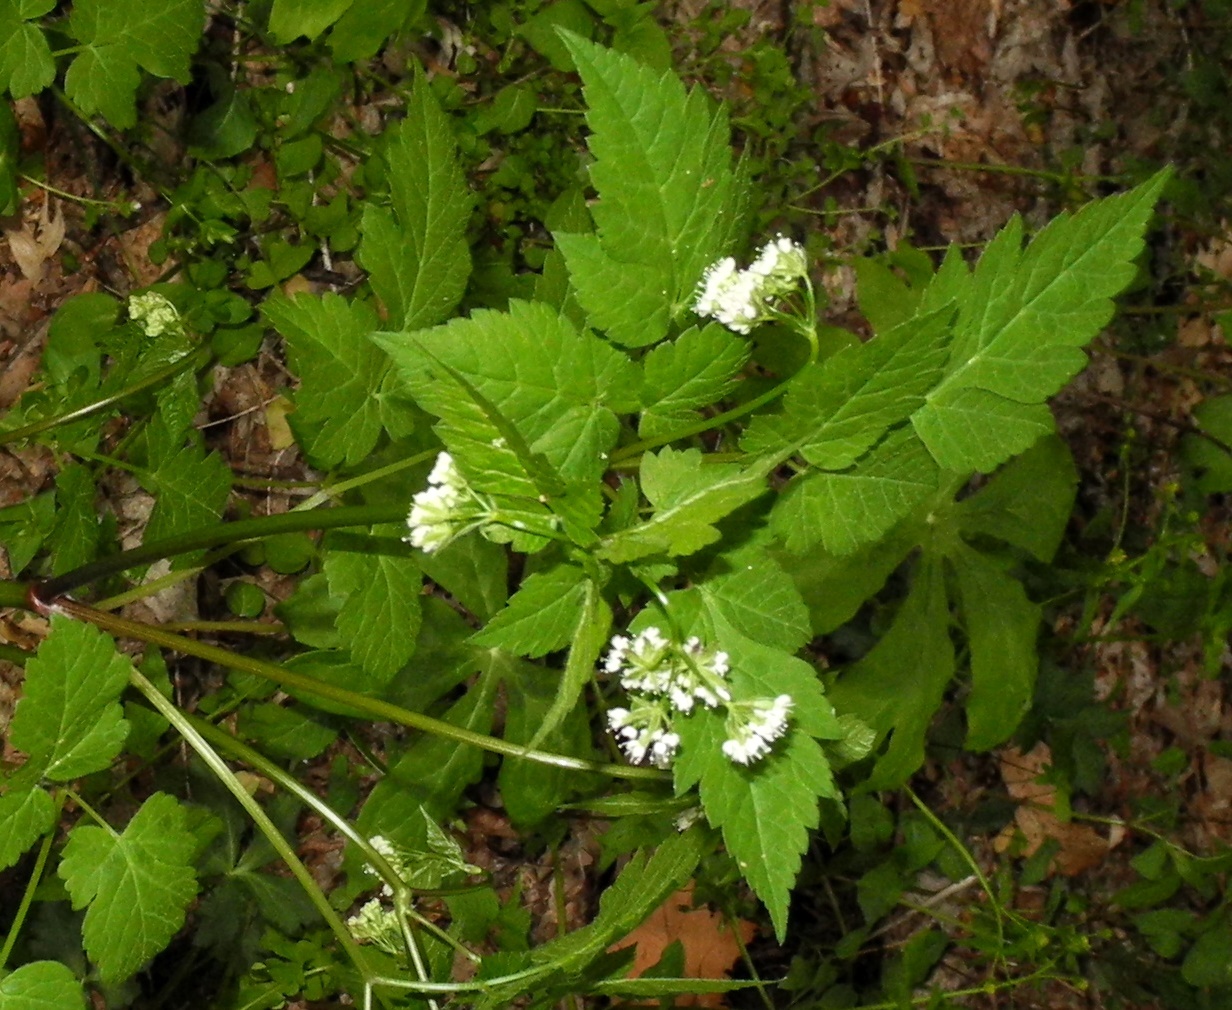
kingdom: Plantae
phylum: Tracheophyta
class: Magnoliopsida
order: Apiales
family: Apiaceae
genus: Osmorhiza
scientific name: Osmorhiza longistylis
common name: Smooth sweet cicely
